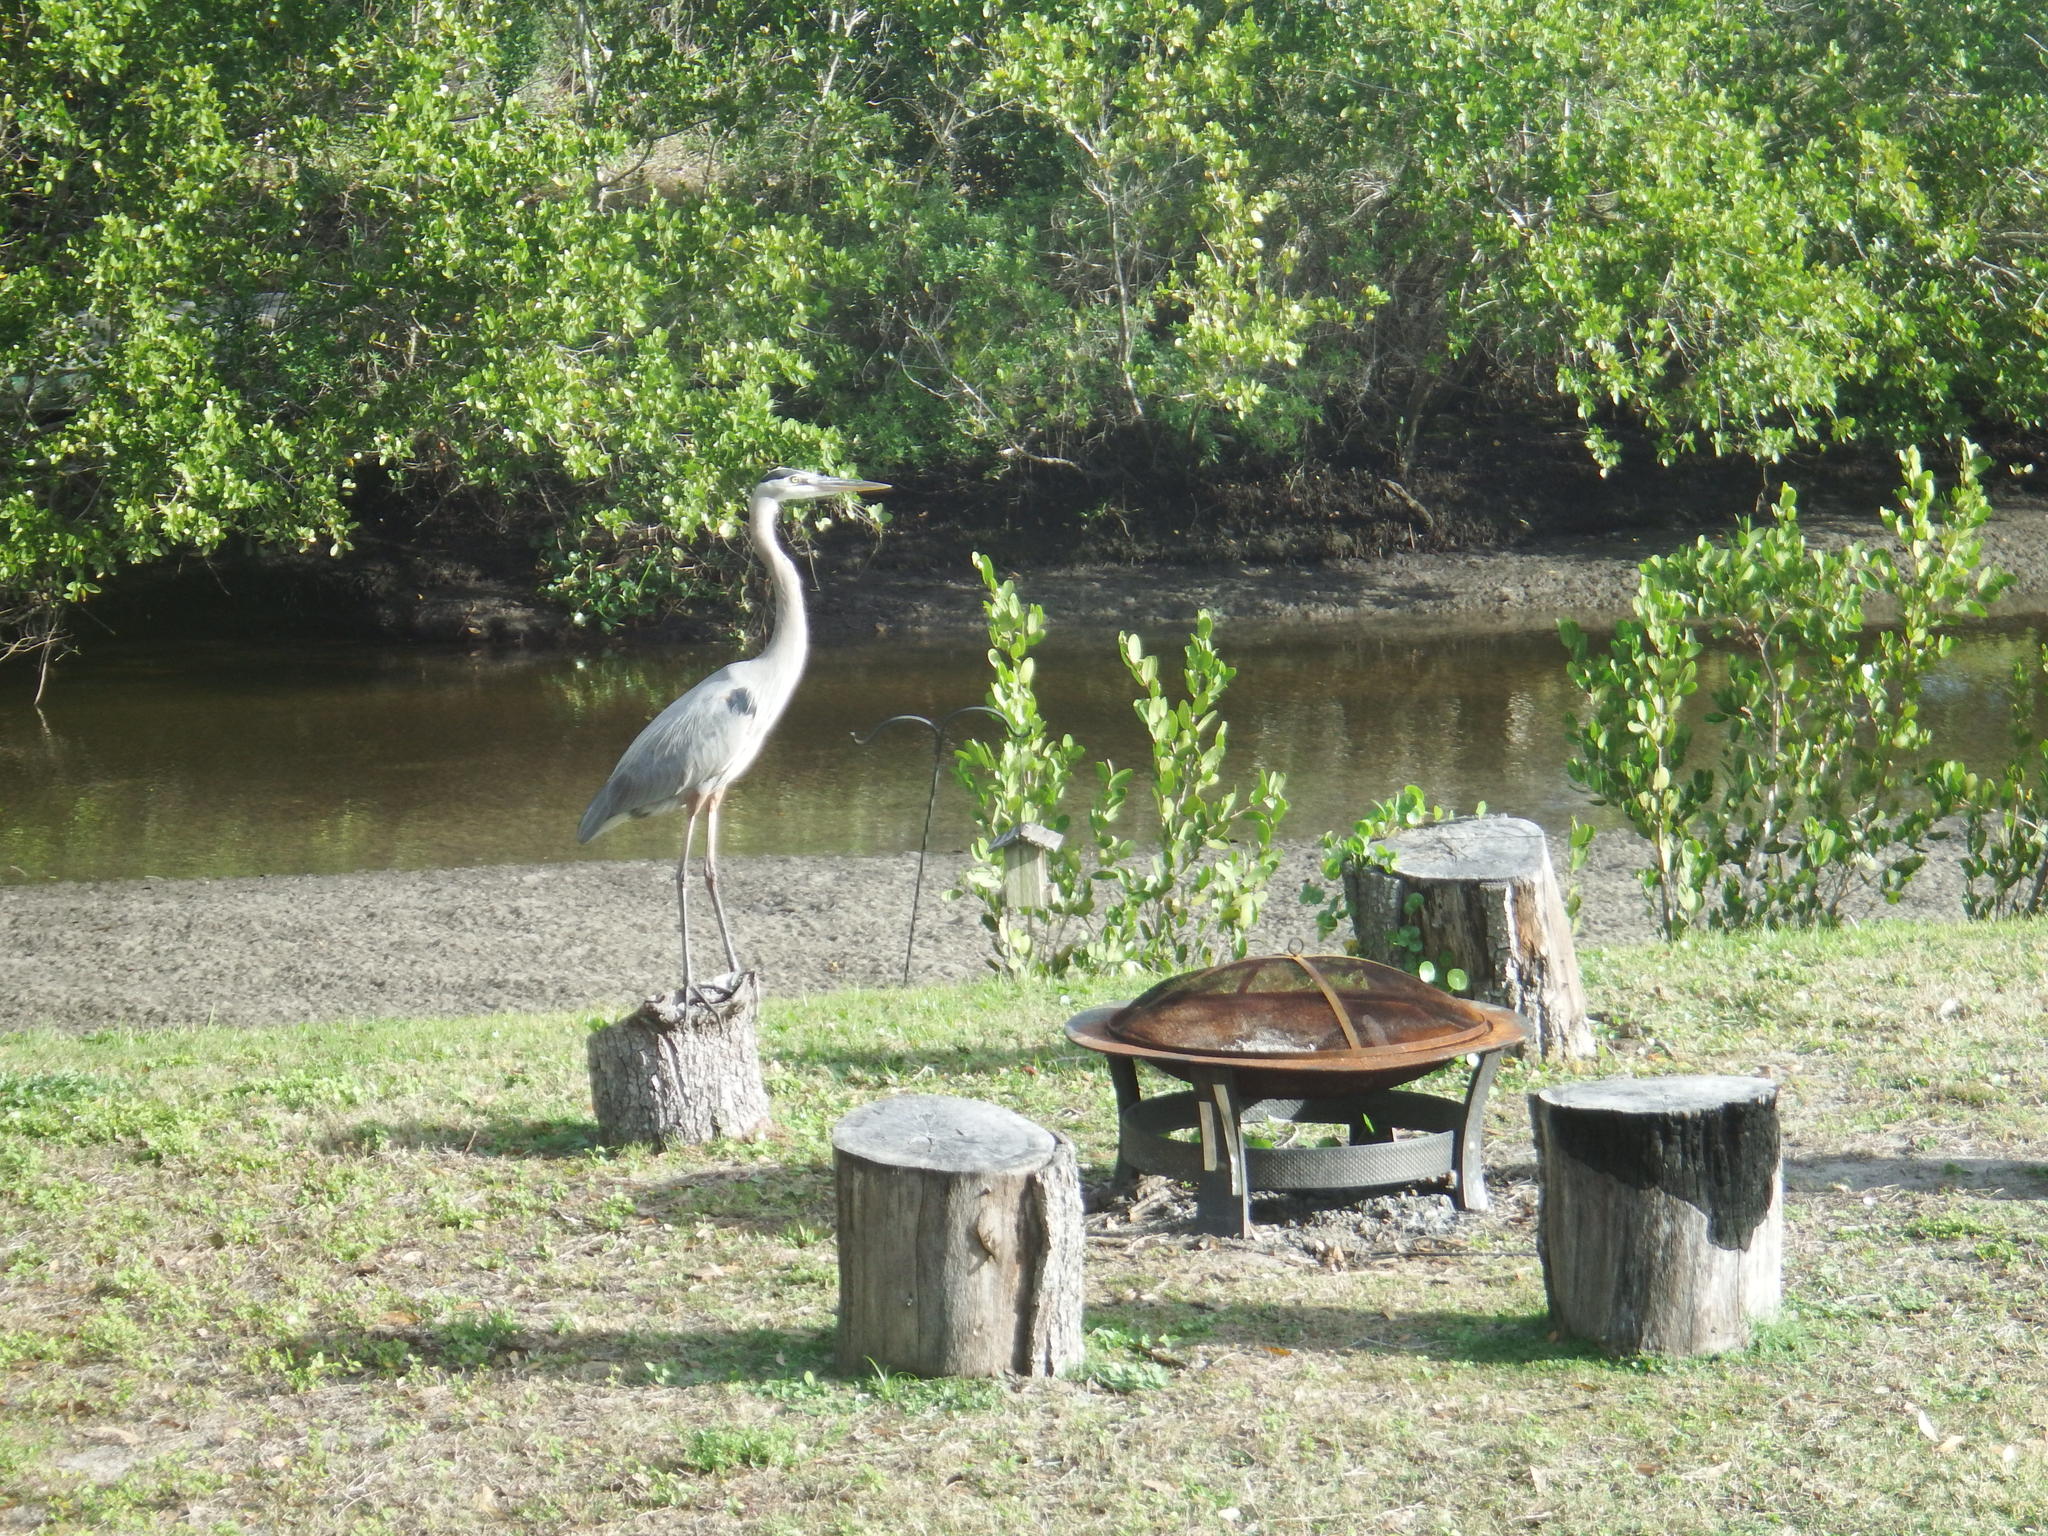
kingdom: Animalia
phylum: Chordata
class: Aves
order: Pelecaniformes
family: Ardeidae
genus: Ardea
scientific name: Ardea herodias
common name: Great blue heron
